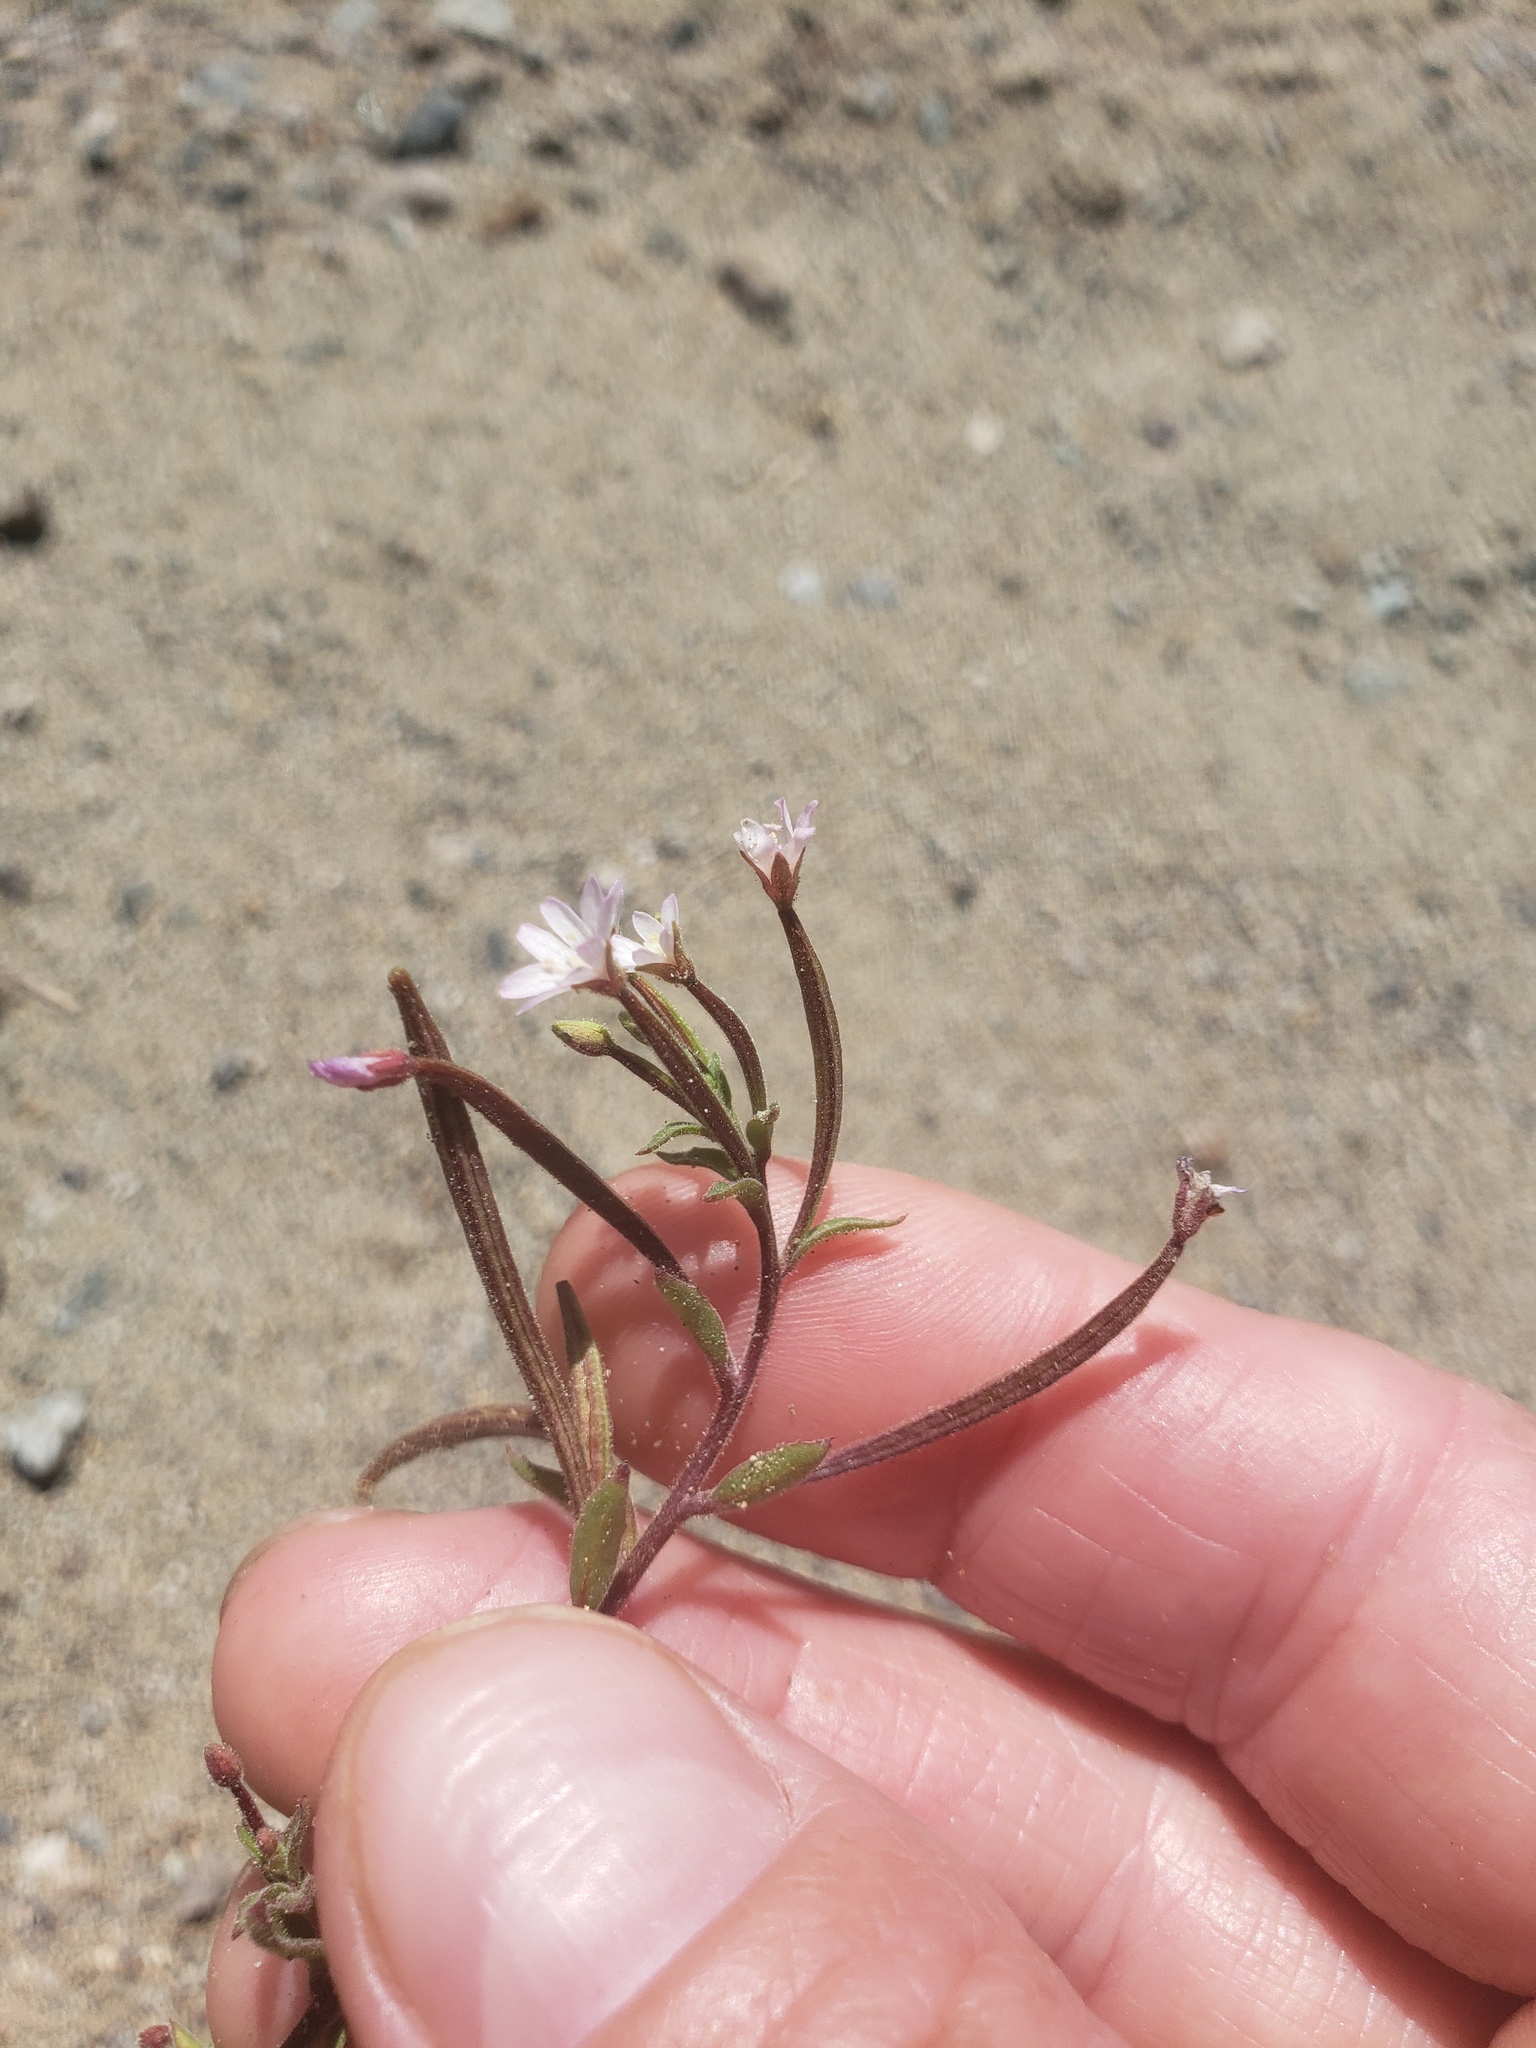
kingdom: Plantae
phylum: Tracheophyta
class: Magnoliopsida
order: Myrtales
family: Onagraceae
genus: Epilobium
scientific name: Epilobium minutum
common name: Chaparral willowherb
